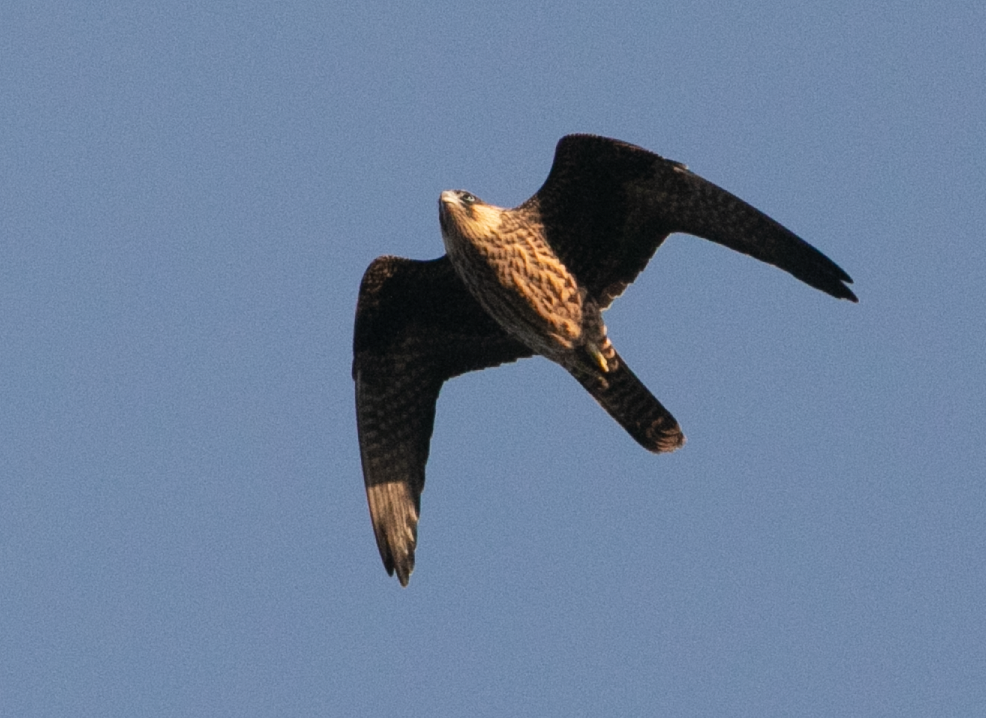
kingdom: Animalia
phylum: Chordata
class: Aves
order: Falconiformes
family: Falconidae
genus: Falco
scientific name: Falco eleonorae
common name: Eleonora's falcon
